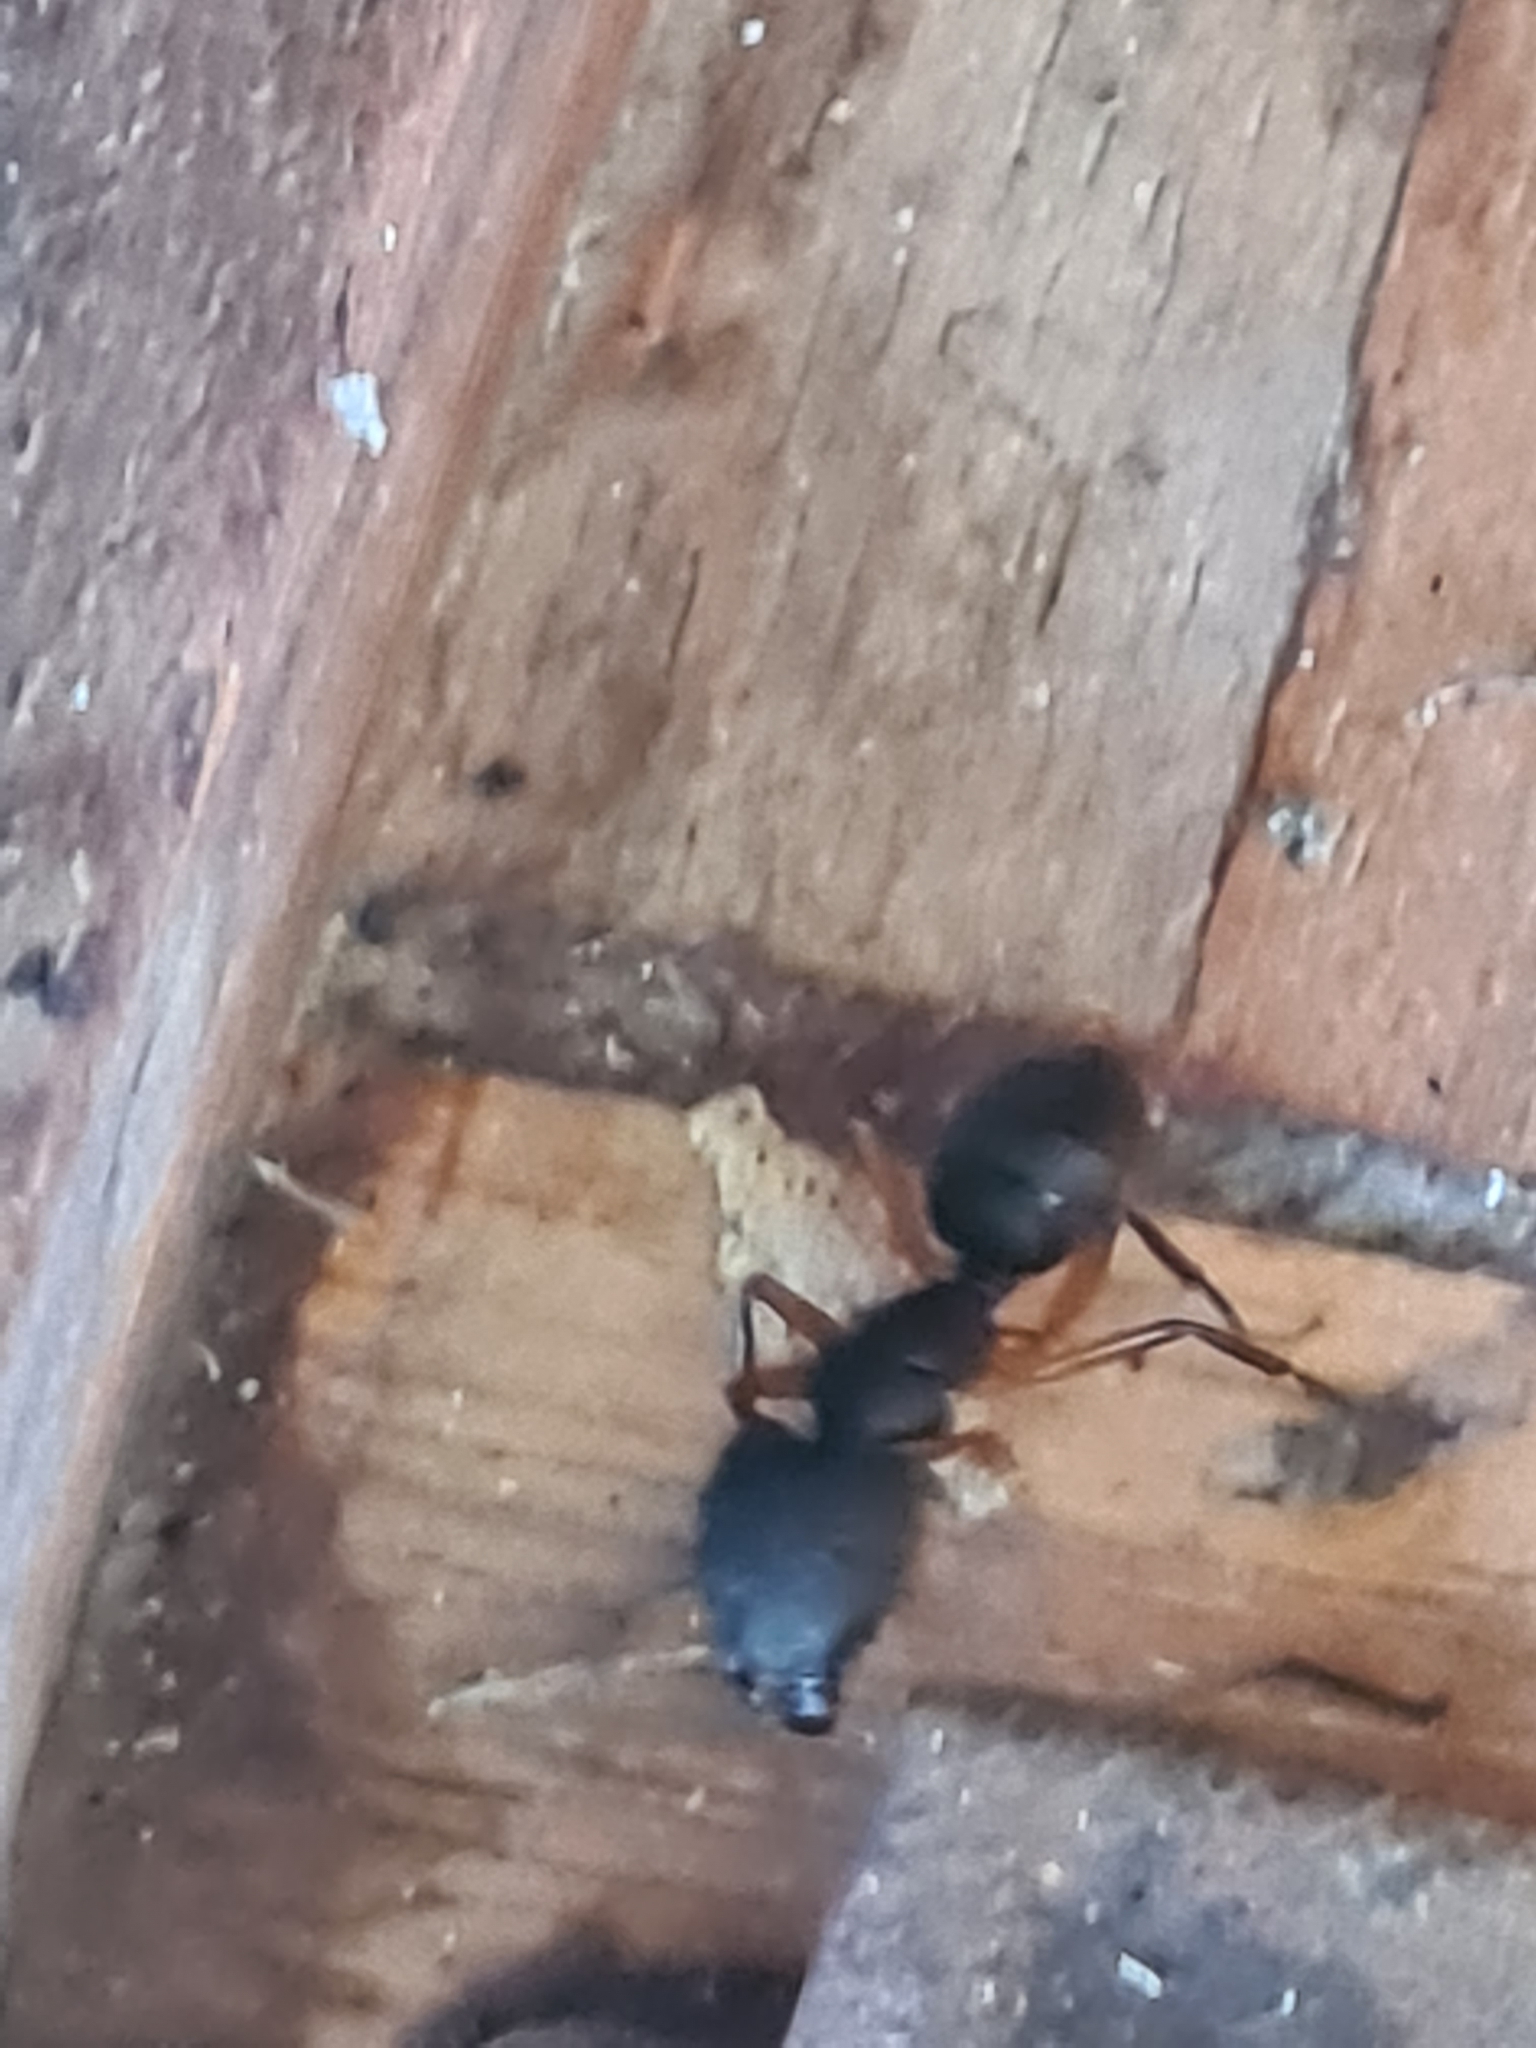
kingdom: Animalia
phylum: Arthropoda
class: Insecta
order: Hymenoptera
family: Formicidae
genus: Camponotus
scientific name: Camponotus renggeri
